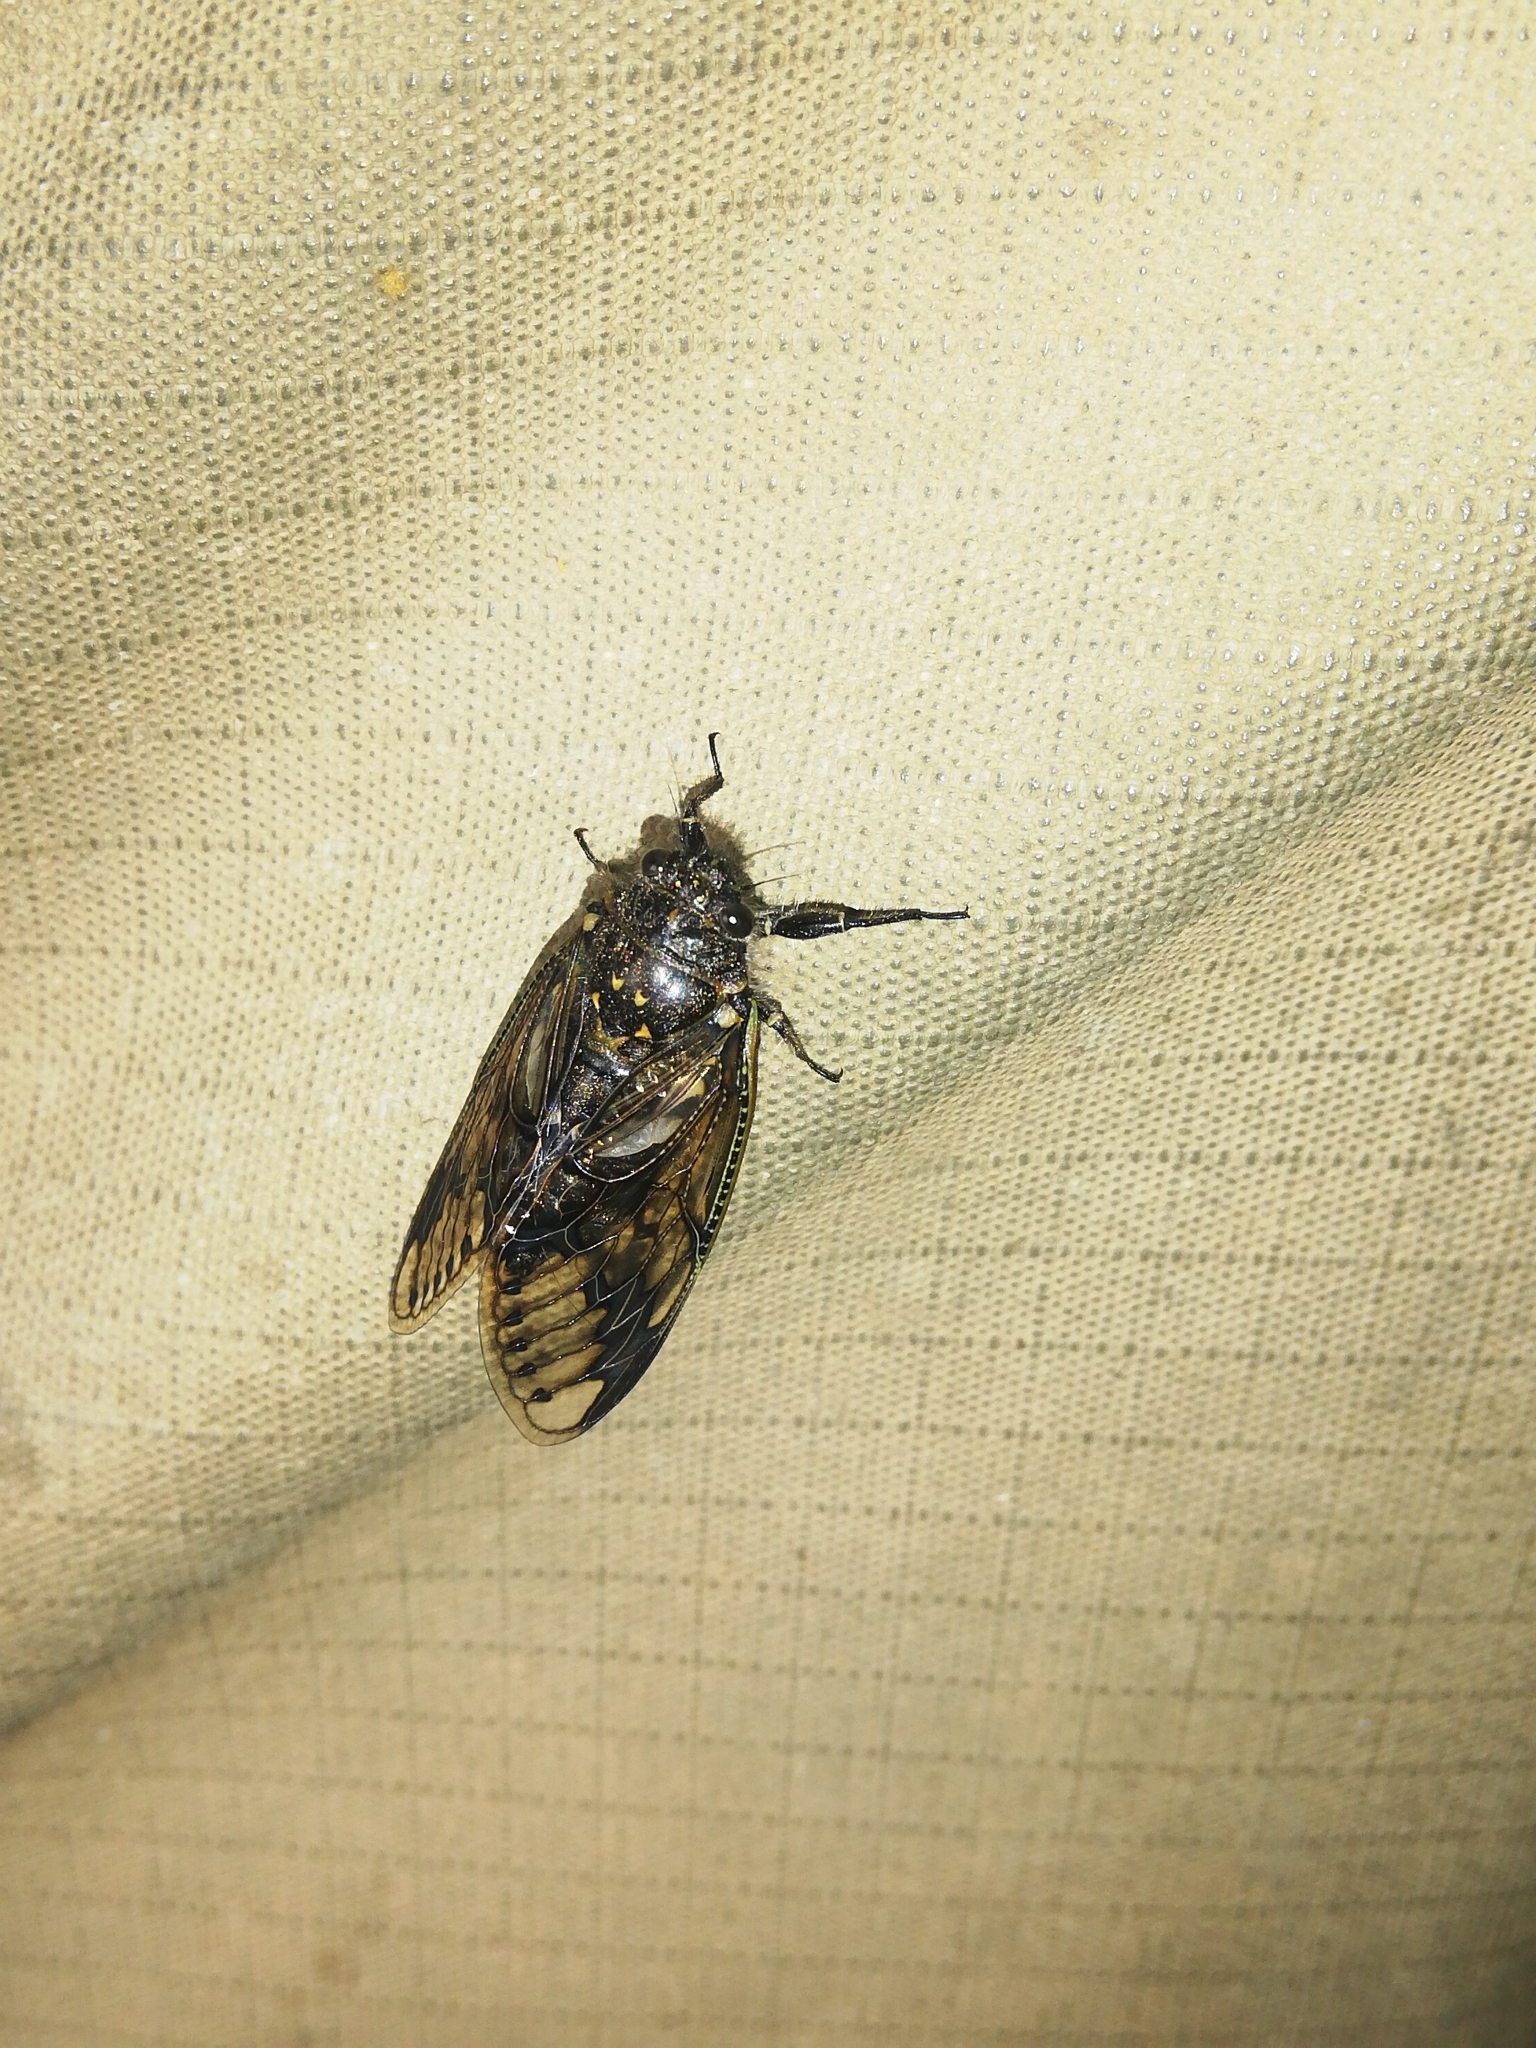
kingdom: Animalia
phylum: Arthropoda
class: Insecta
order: Hemiptera
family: Cicadidae
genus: Quintilia
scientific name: Quintilia wealei
